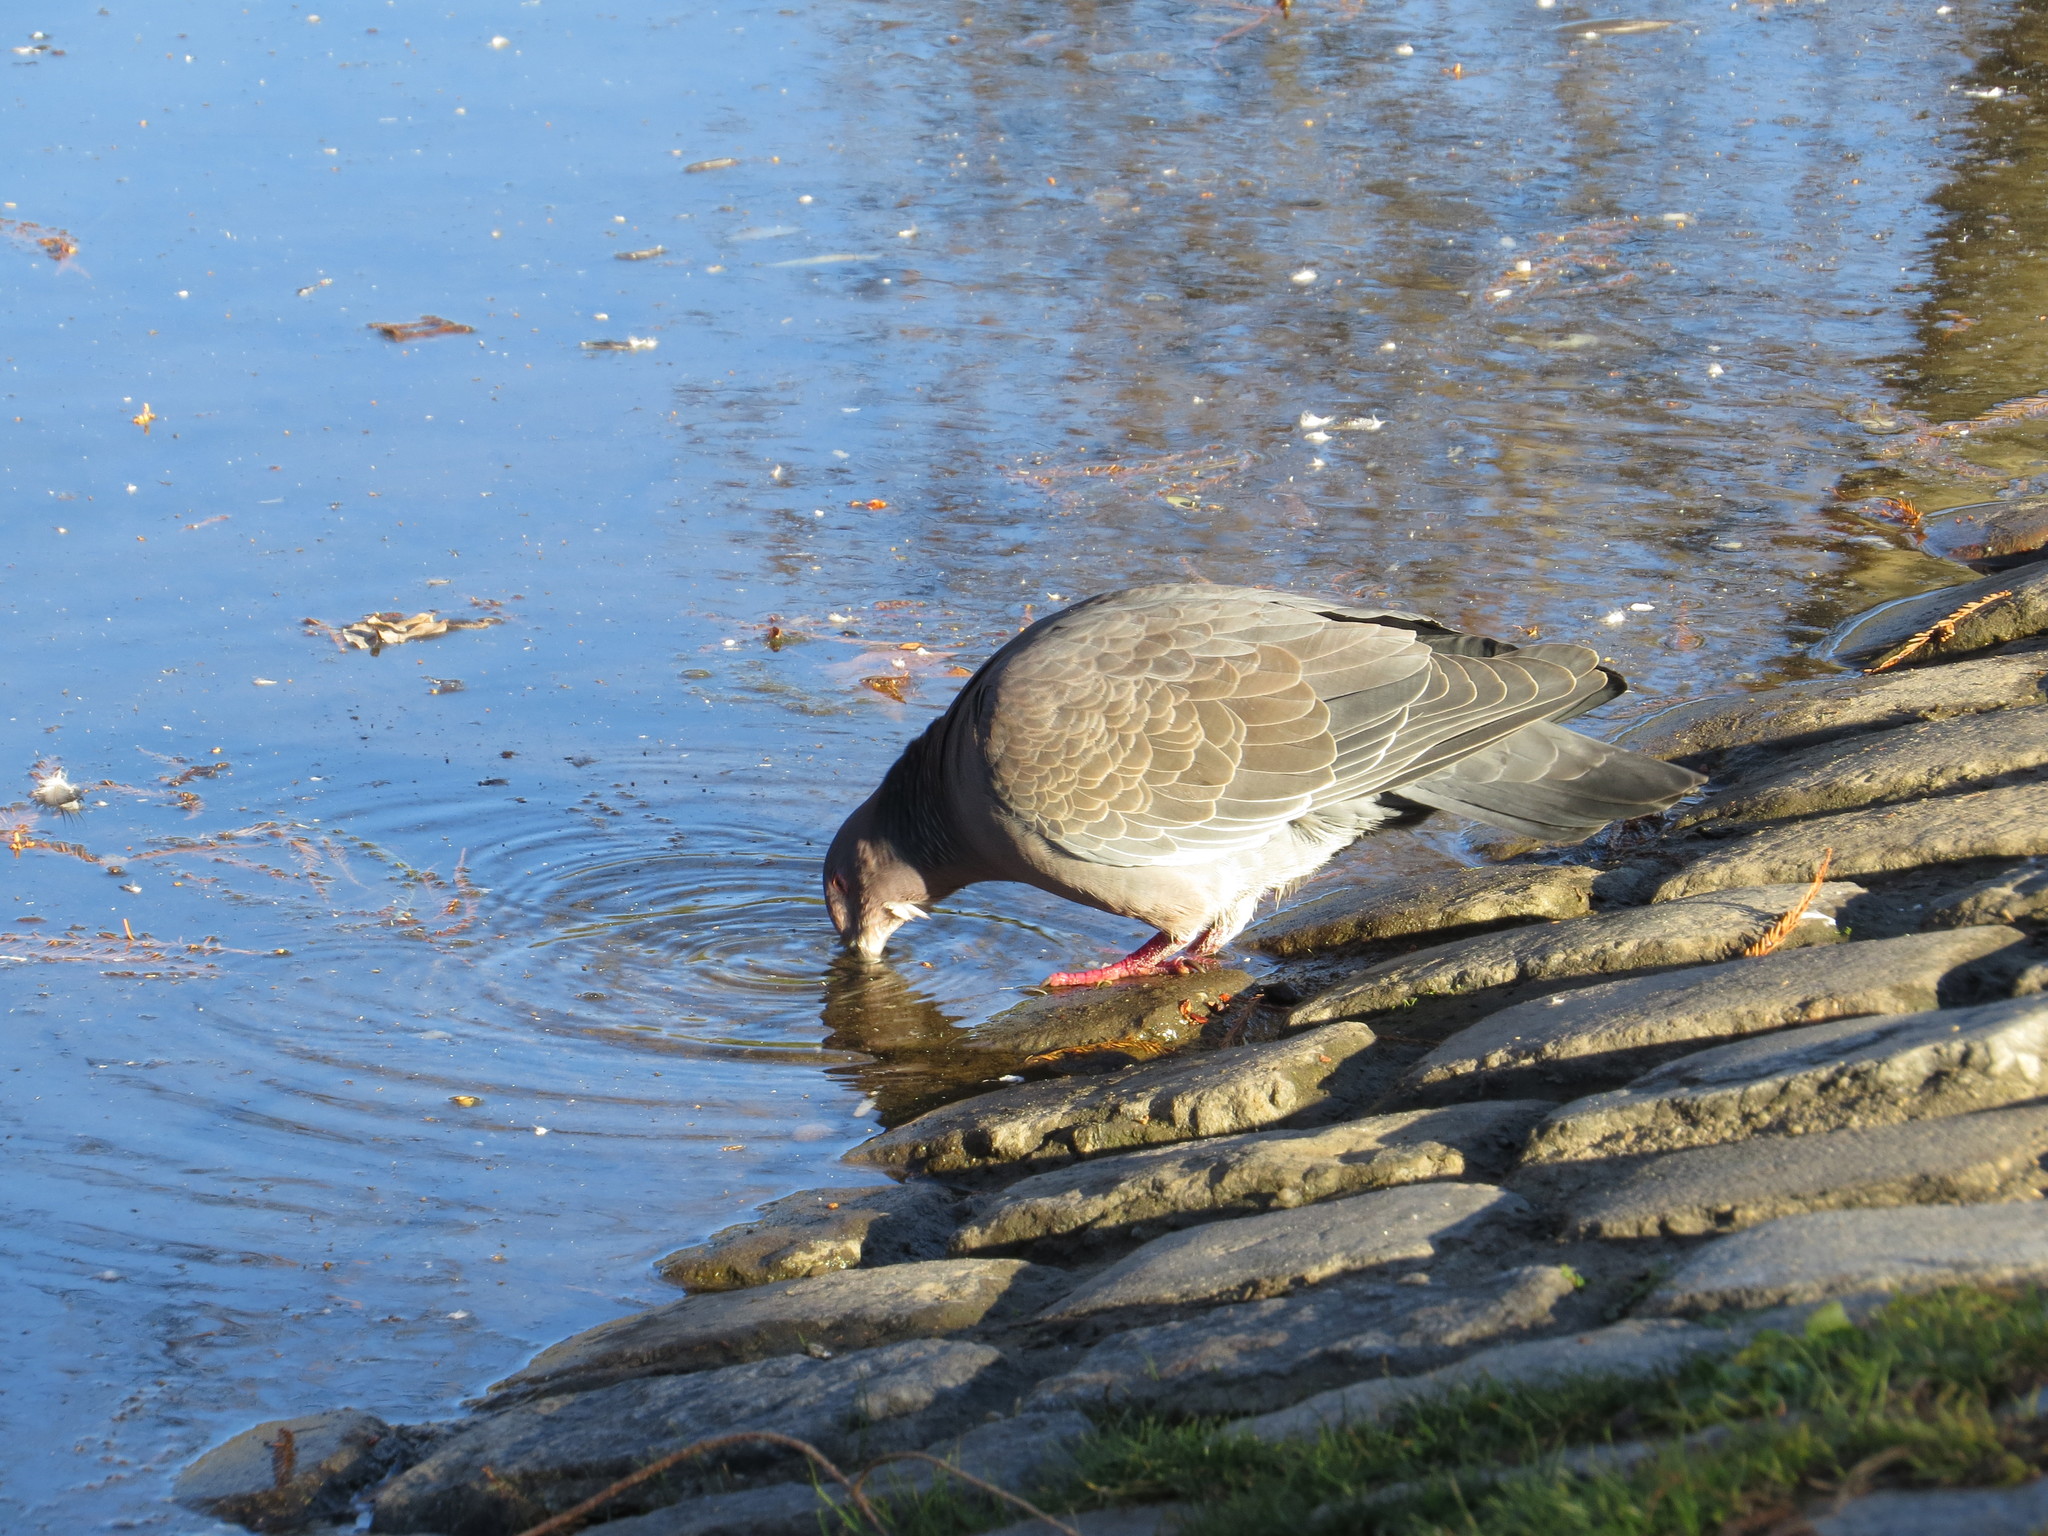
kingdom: Animalia
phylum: Chordata
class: Aves
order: Columbiformes
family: Columbidae
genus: Patagioenas
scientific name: Patagioenas picazuro
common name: Picazuro pigeon
